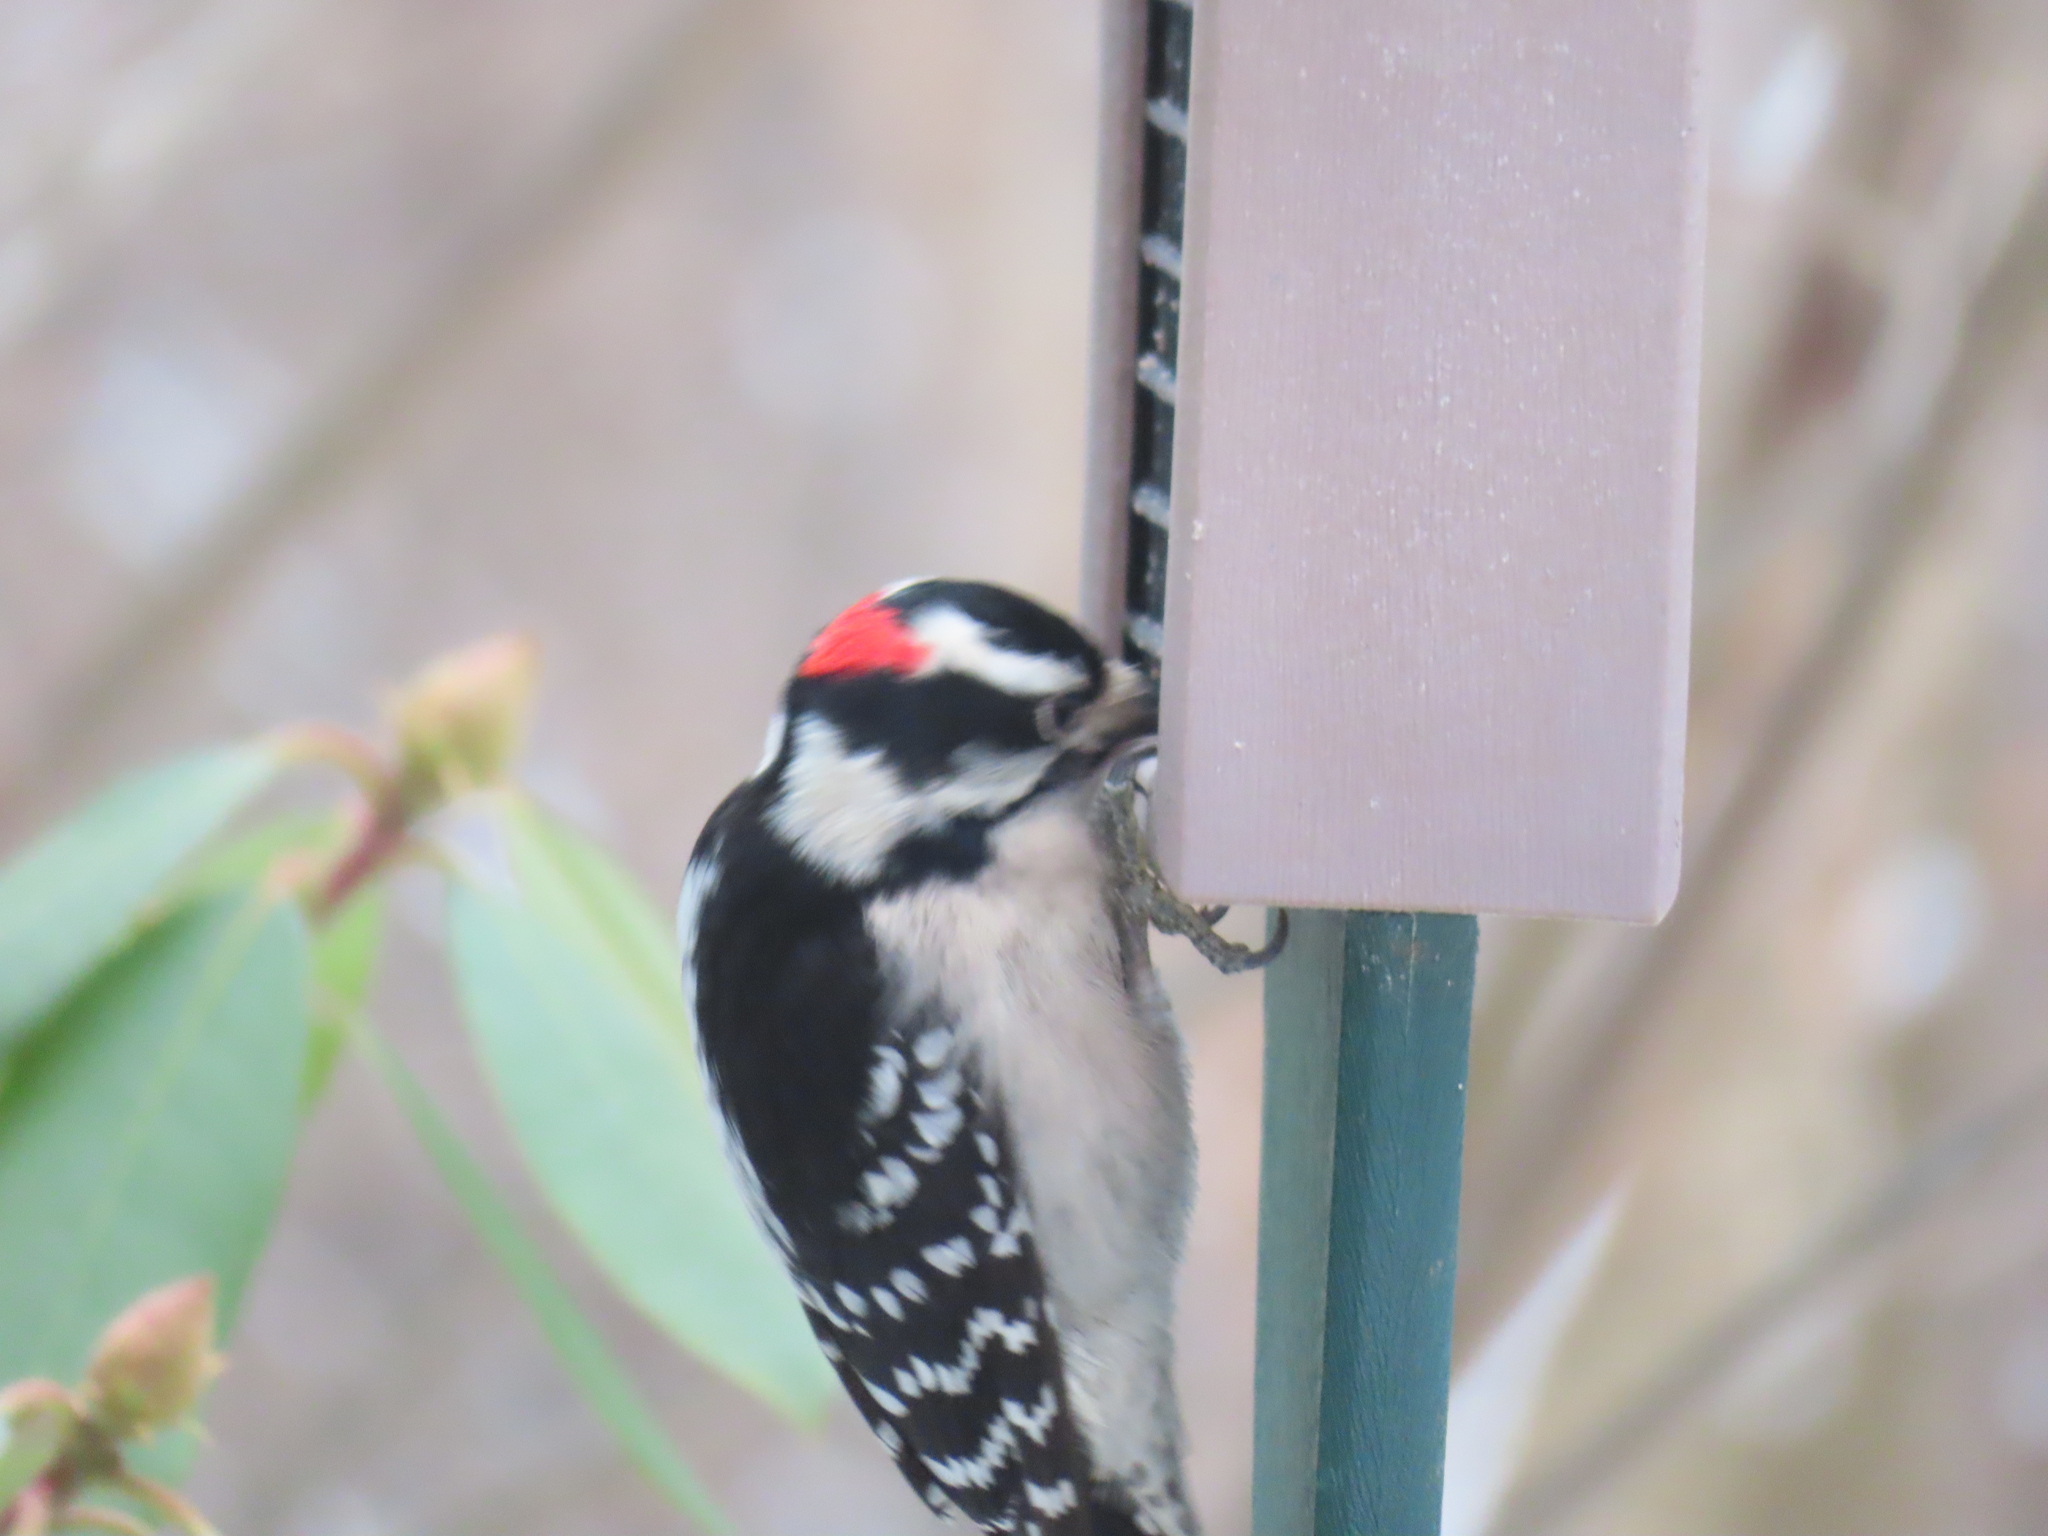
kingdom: Animalia
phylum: Chordata
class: Aves
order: Piciformes
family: Picidae
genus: Dryobates
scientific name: Dryobates pubescens
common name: Downy woodpecker
